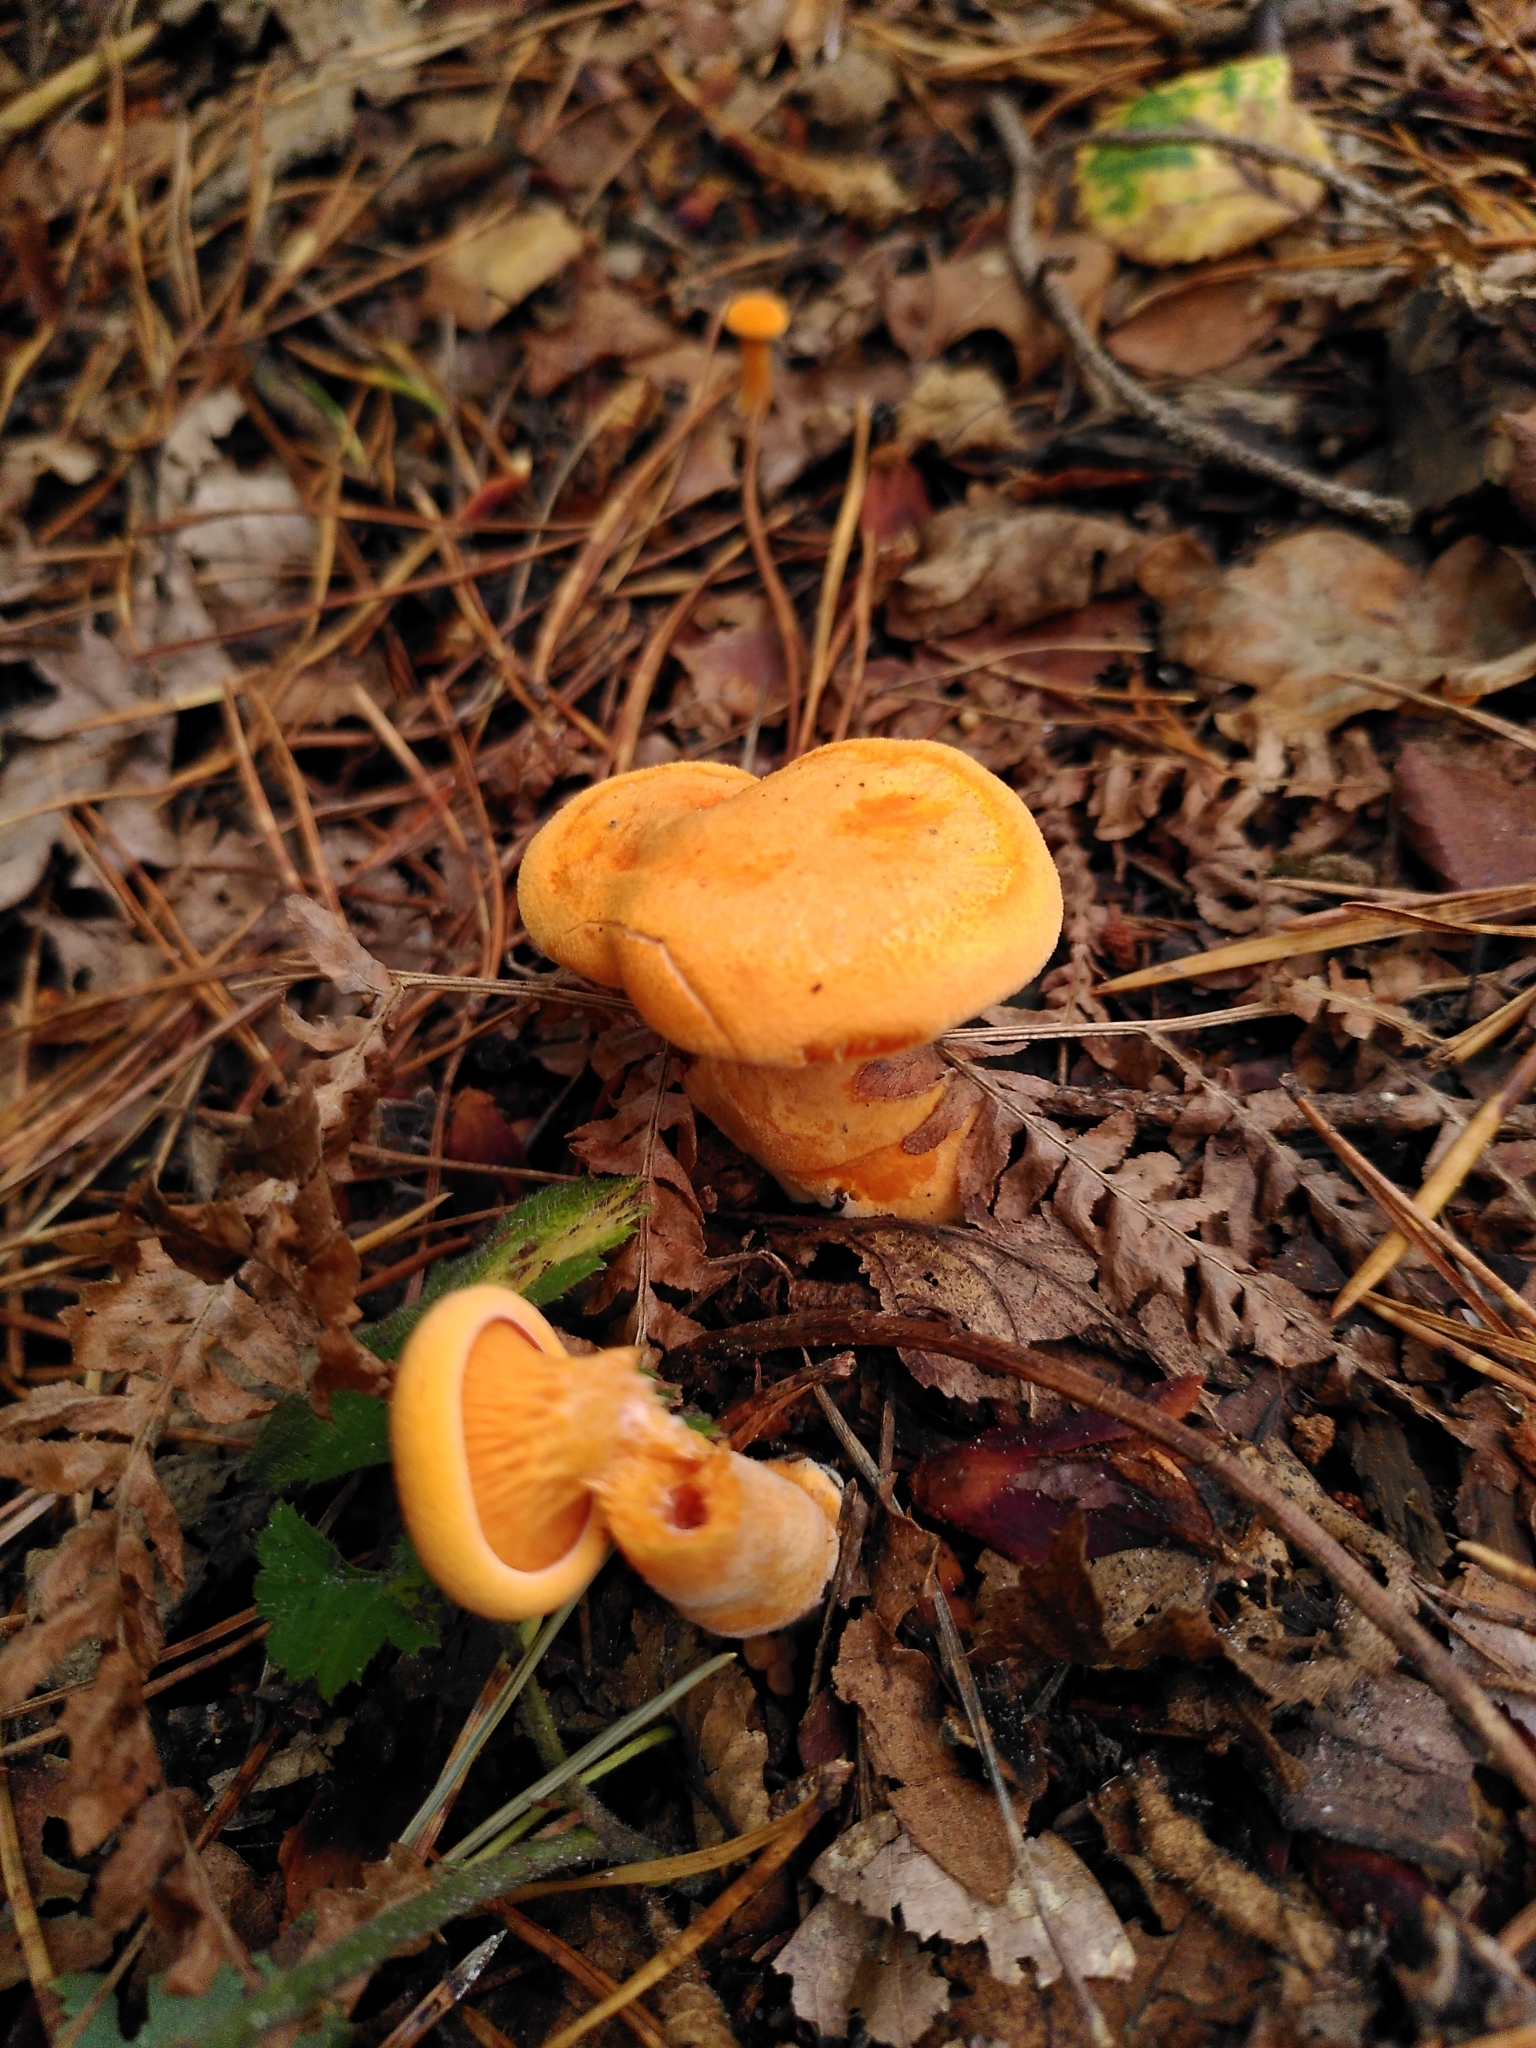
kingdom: Fungi
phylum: Basidiomycota
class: Agaricomycetes
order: Boletales
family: Hygrophoropsidaceae
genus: Hygrophoropsis
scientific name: Hygrophoropsis aurantiaca
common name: False chanterelle
